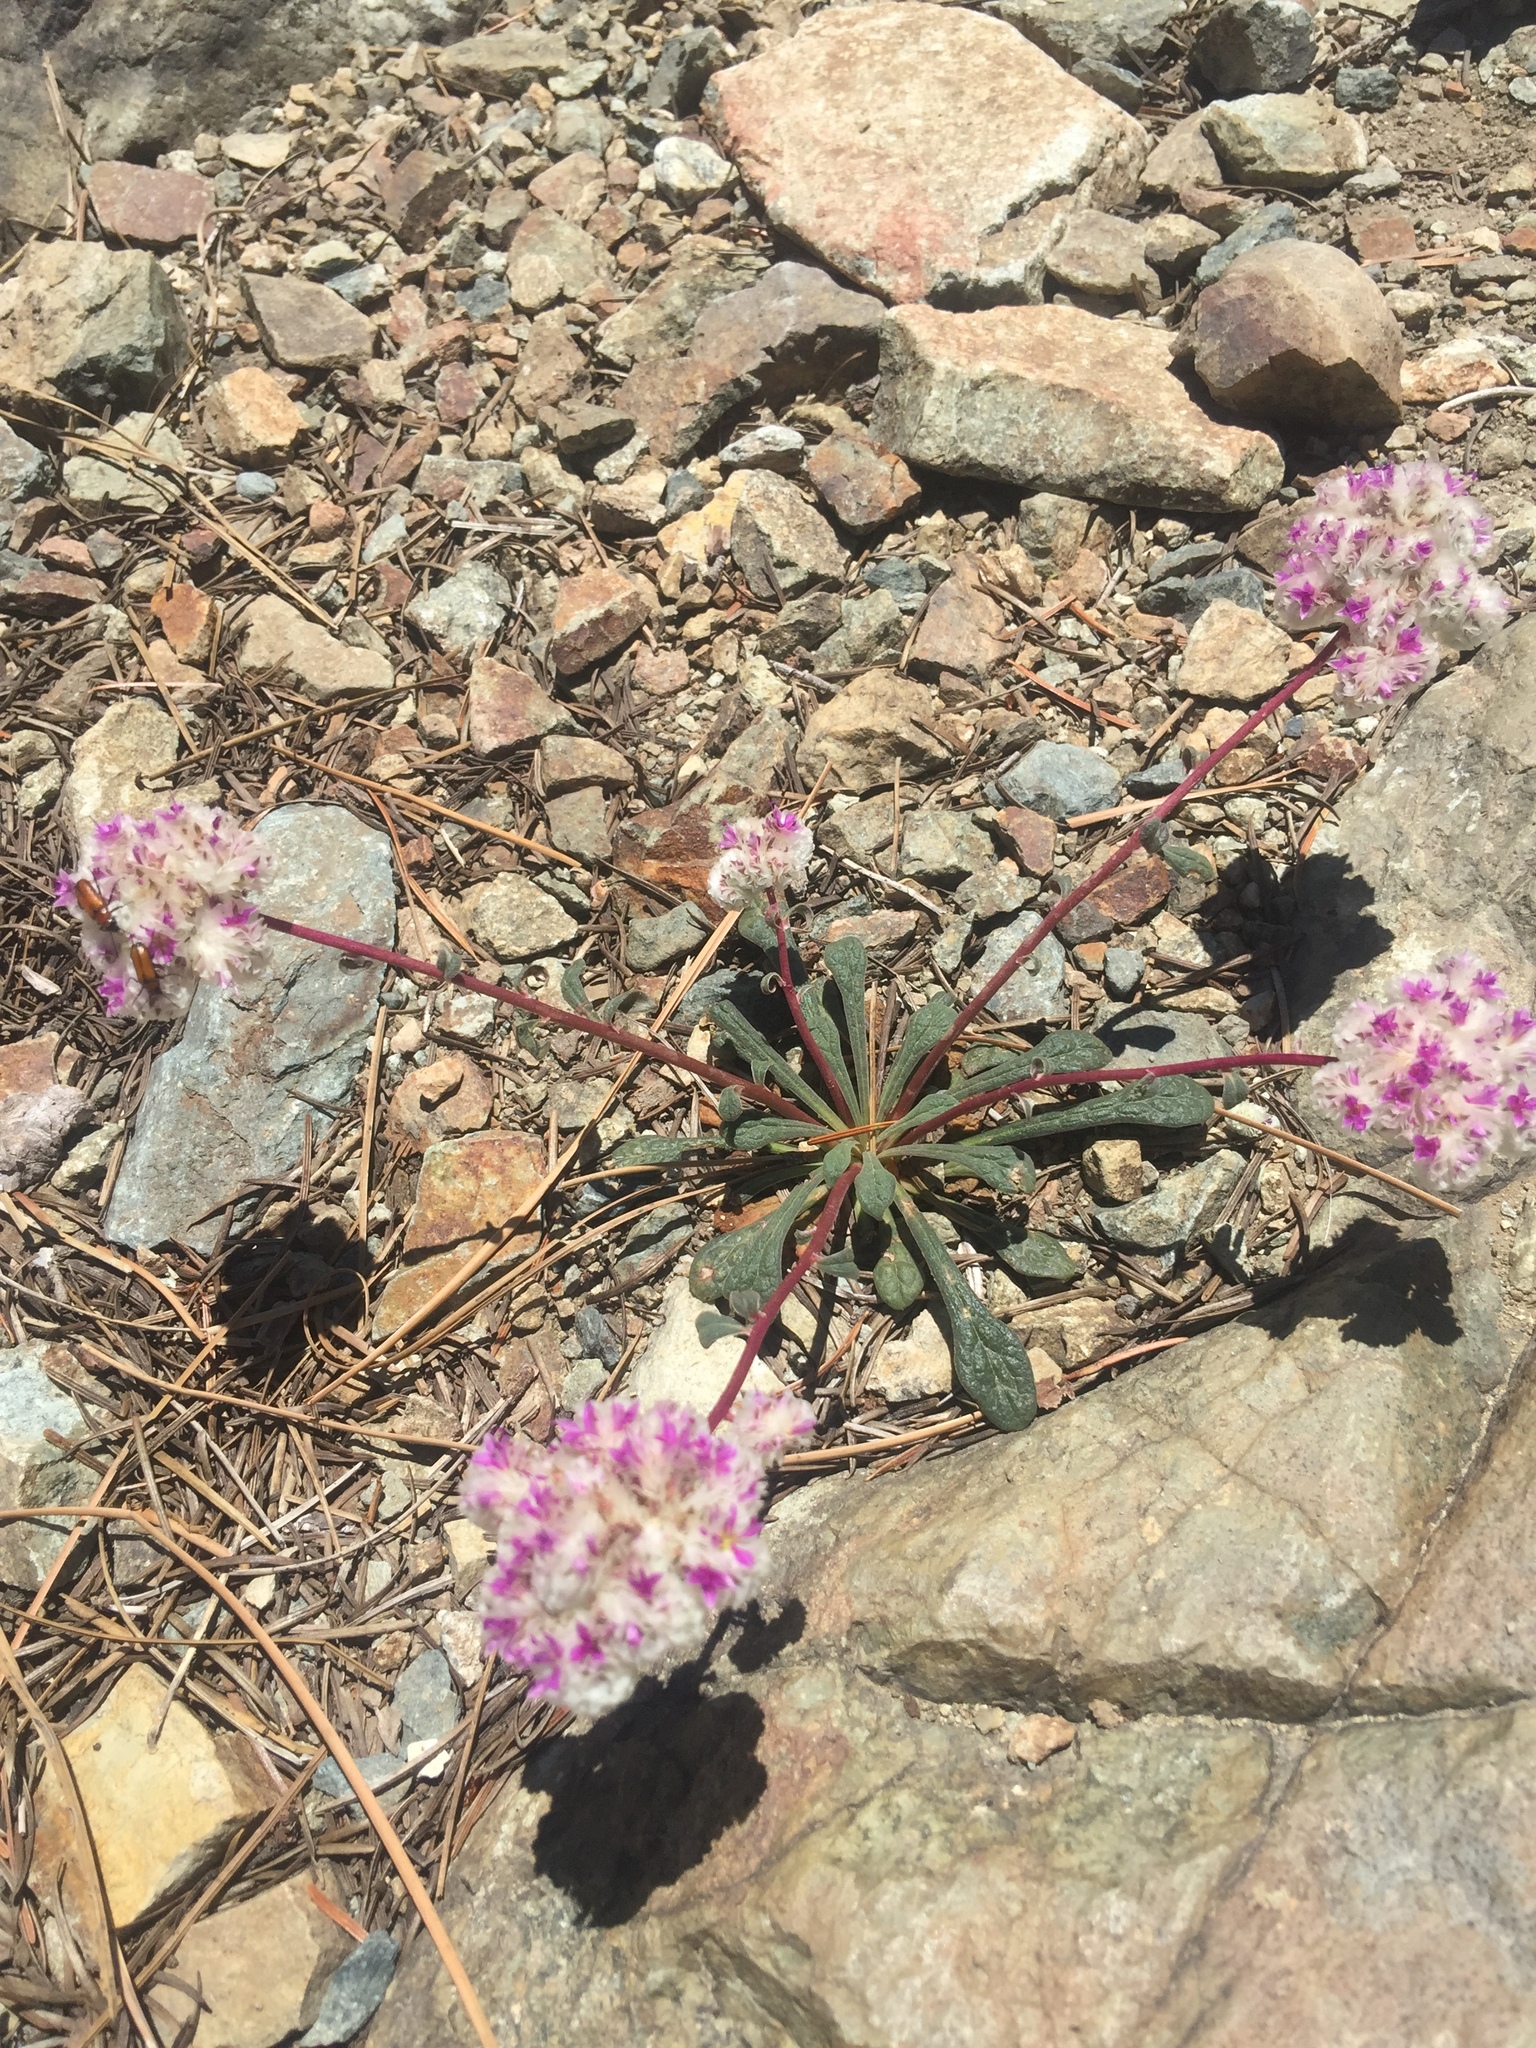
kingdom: Plantae
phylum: Tracheophyta
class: Magnoliopsida
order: Caryophyllales
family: Montiaceae
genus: Calyptridium
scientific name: Calyptridium monospermum
